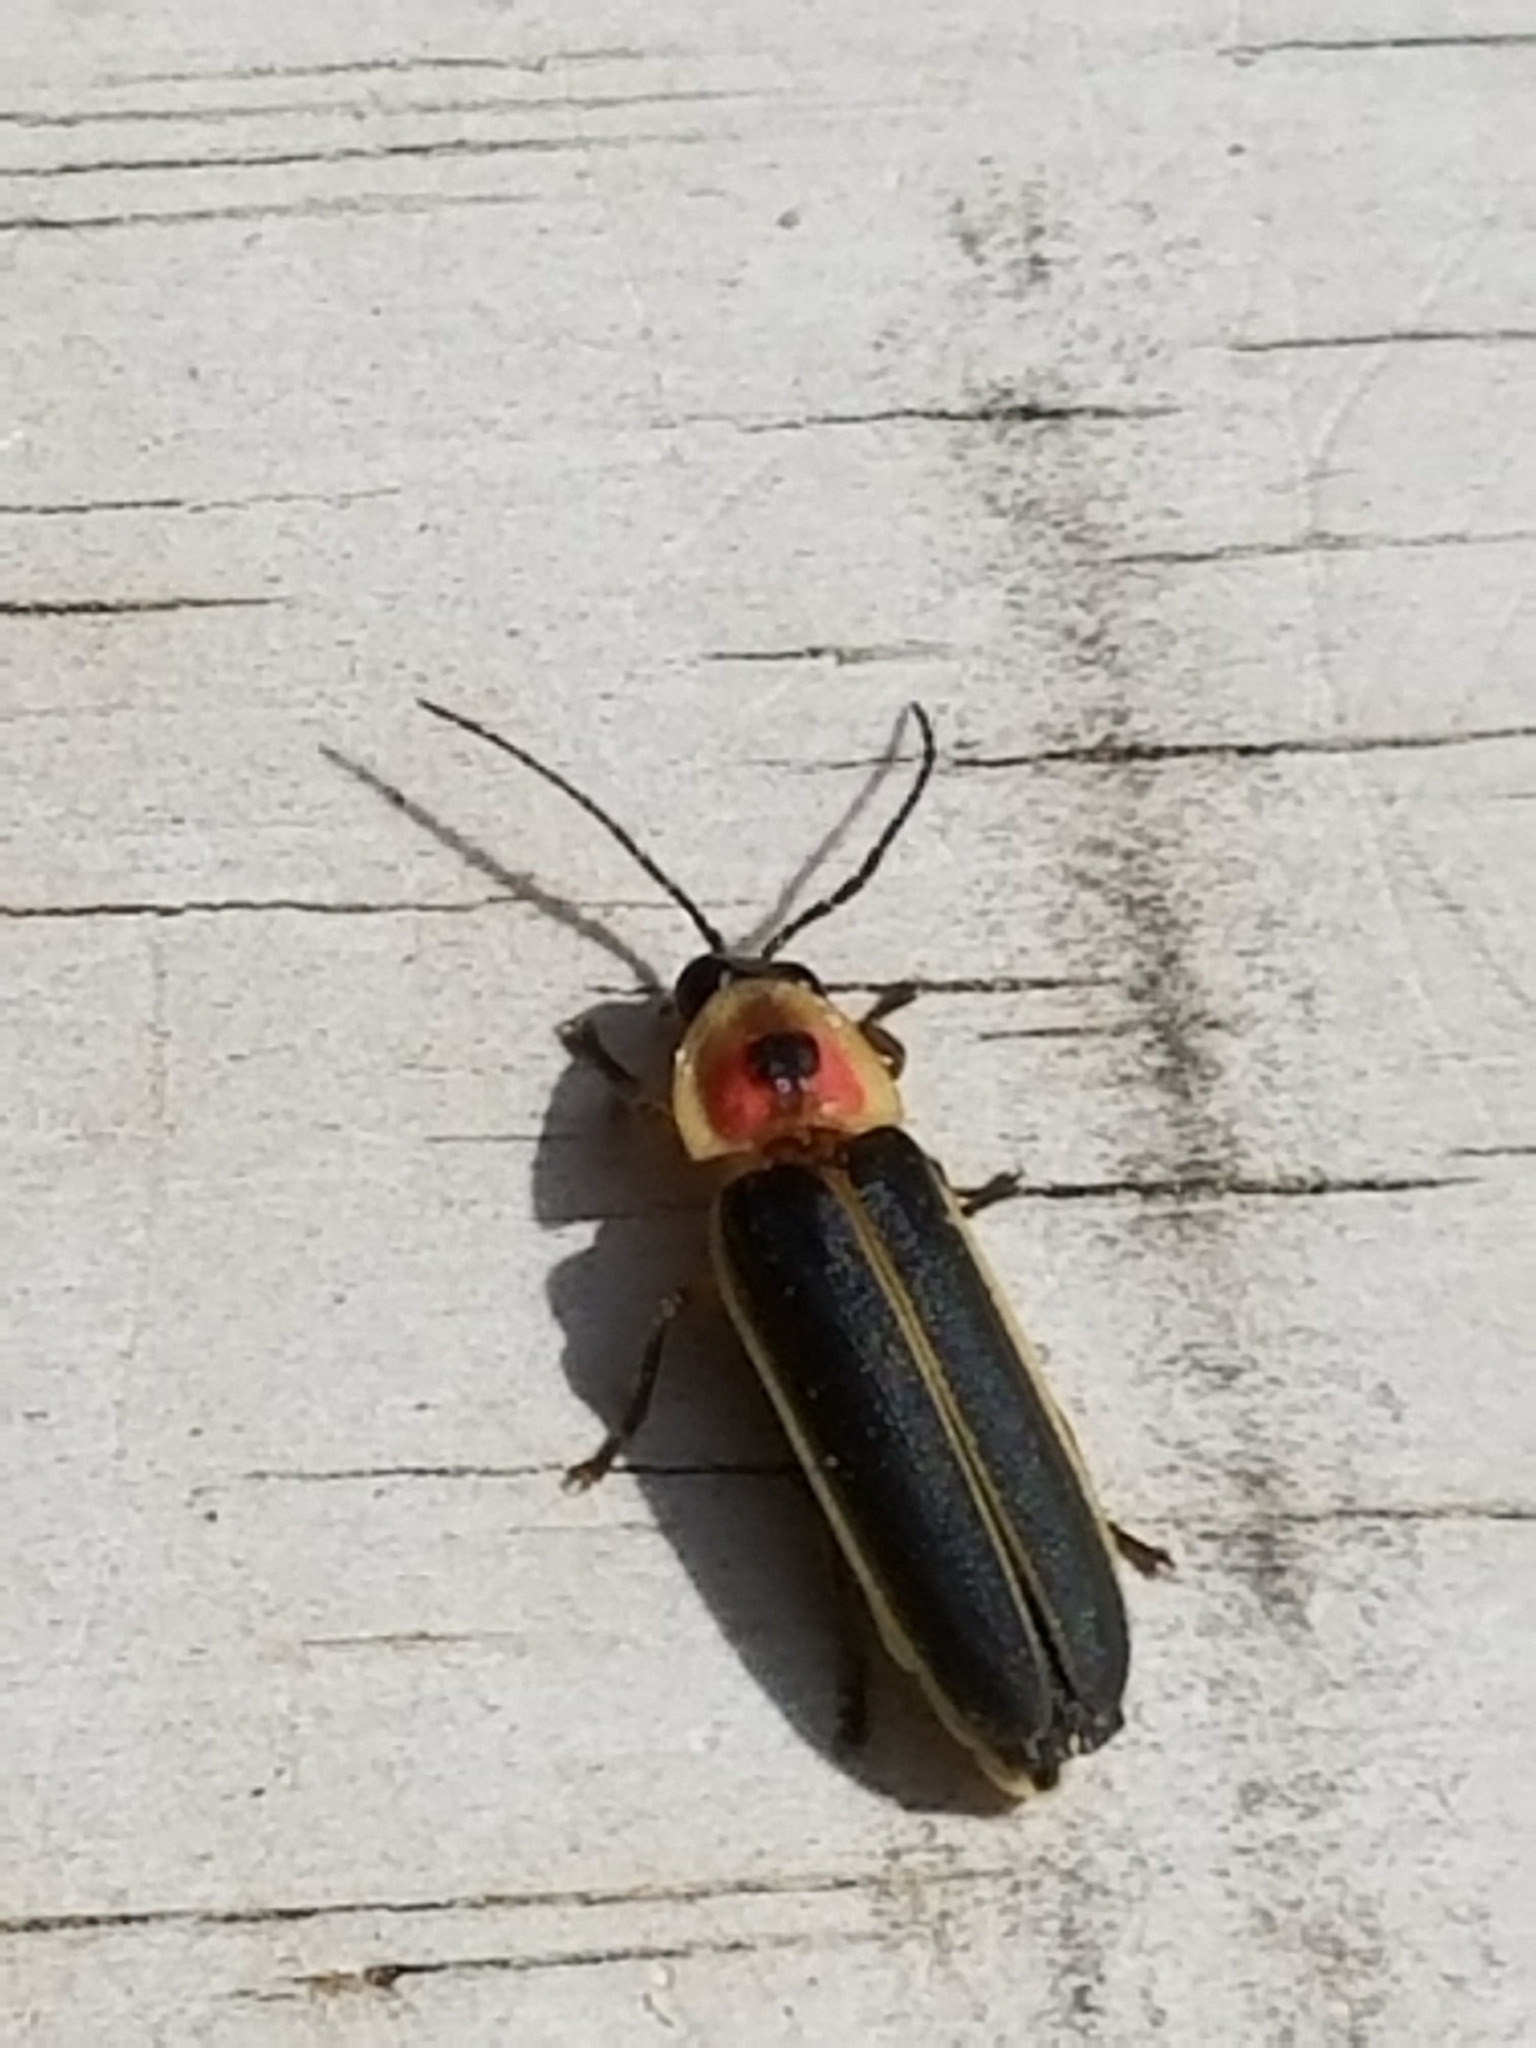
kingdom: Animalia
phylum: Arthropoda
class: Insecta
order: Coleoptera
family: Lampyridae
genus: Photinus
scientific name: Photinus pyralis
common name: Big dipper firefly
